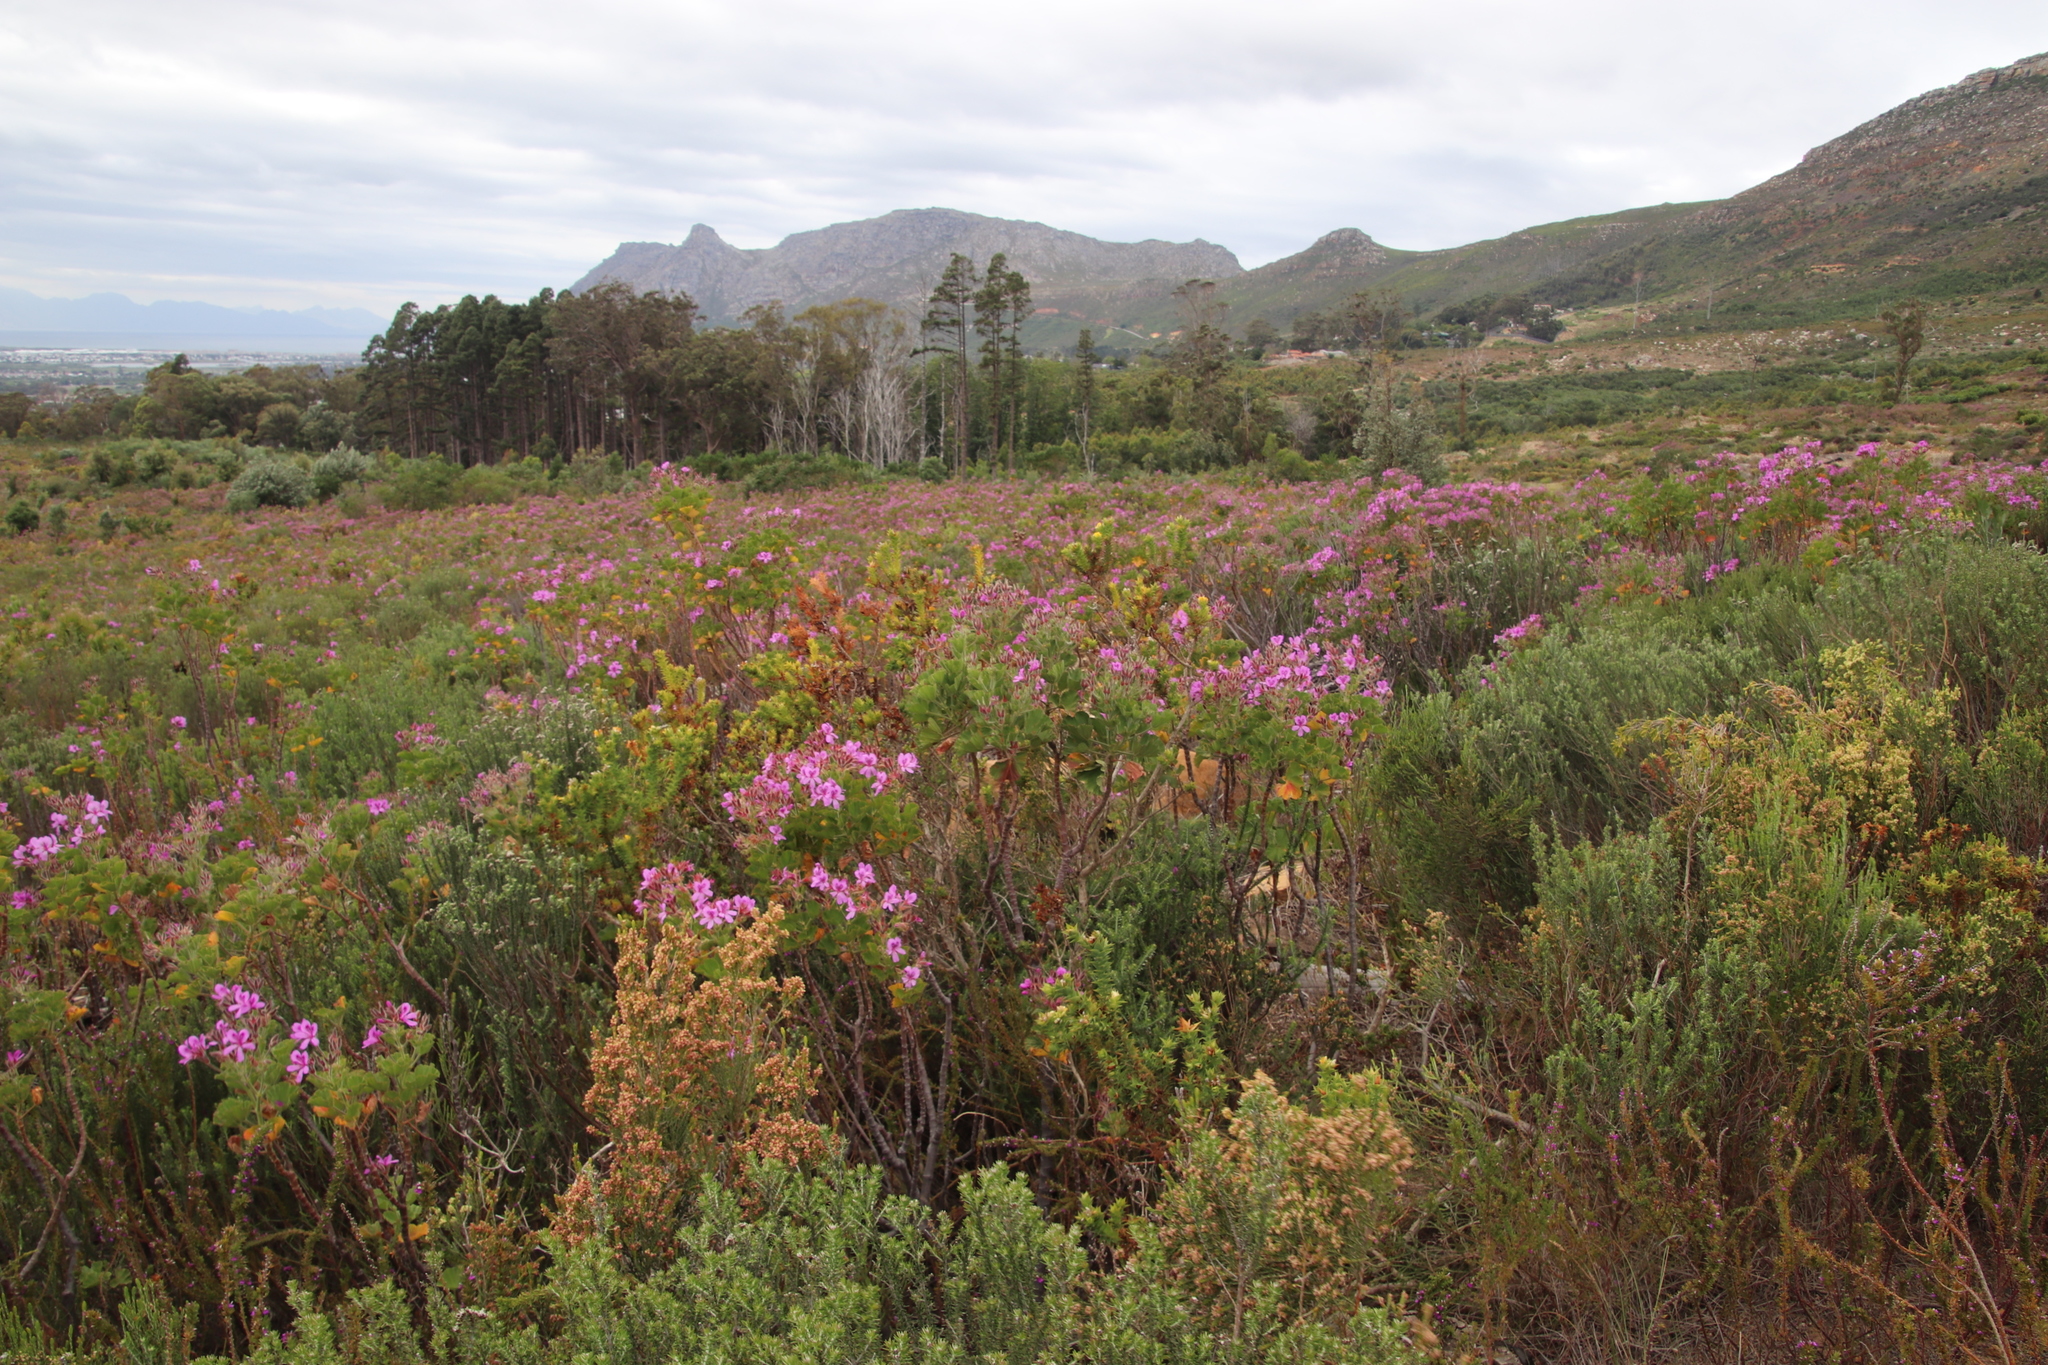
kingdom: Plantae
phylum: Tracheophyta
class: Magnoliopsida
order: Fabales
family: Fabaceae
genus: Aspalathus
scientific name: Aspalathus cordata
